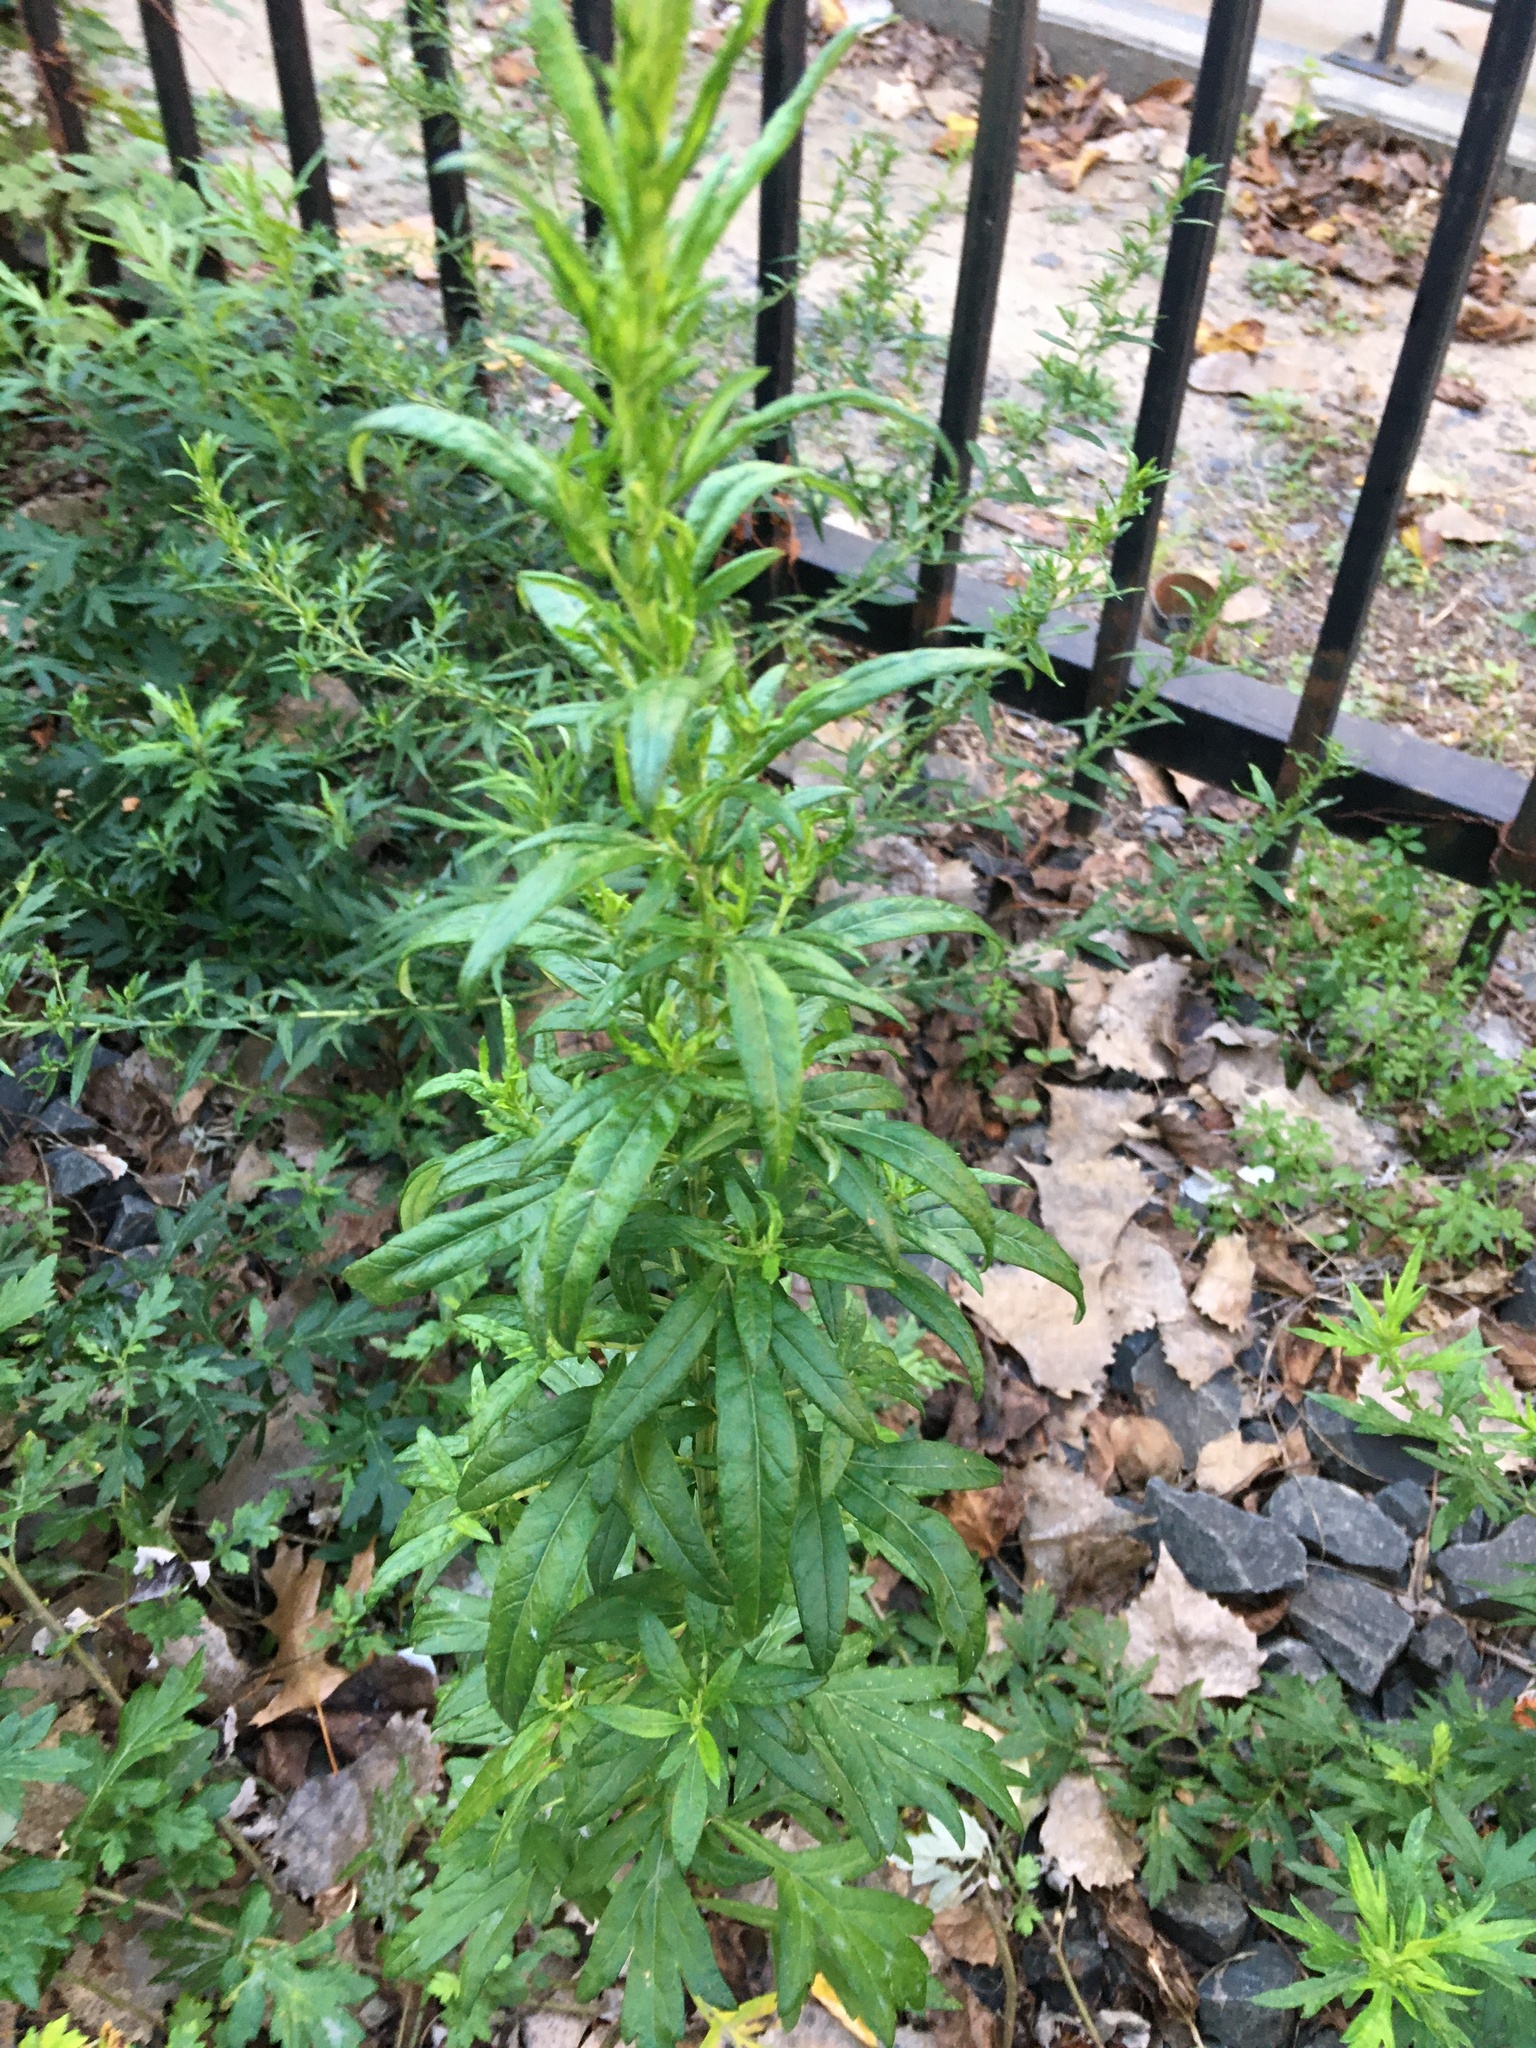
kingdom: Plantae
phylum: Tracheophyta
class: Magnoliopsida
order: Asterales
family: Asteraceae
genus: Artemisia
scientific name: Artemisia vulgaris
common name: Mugwort
